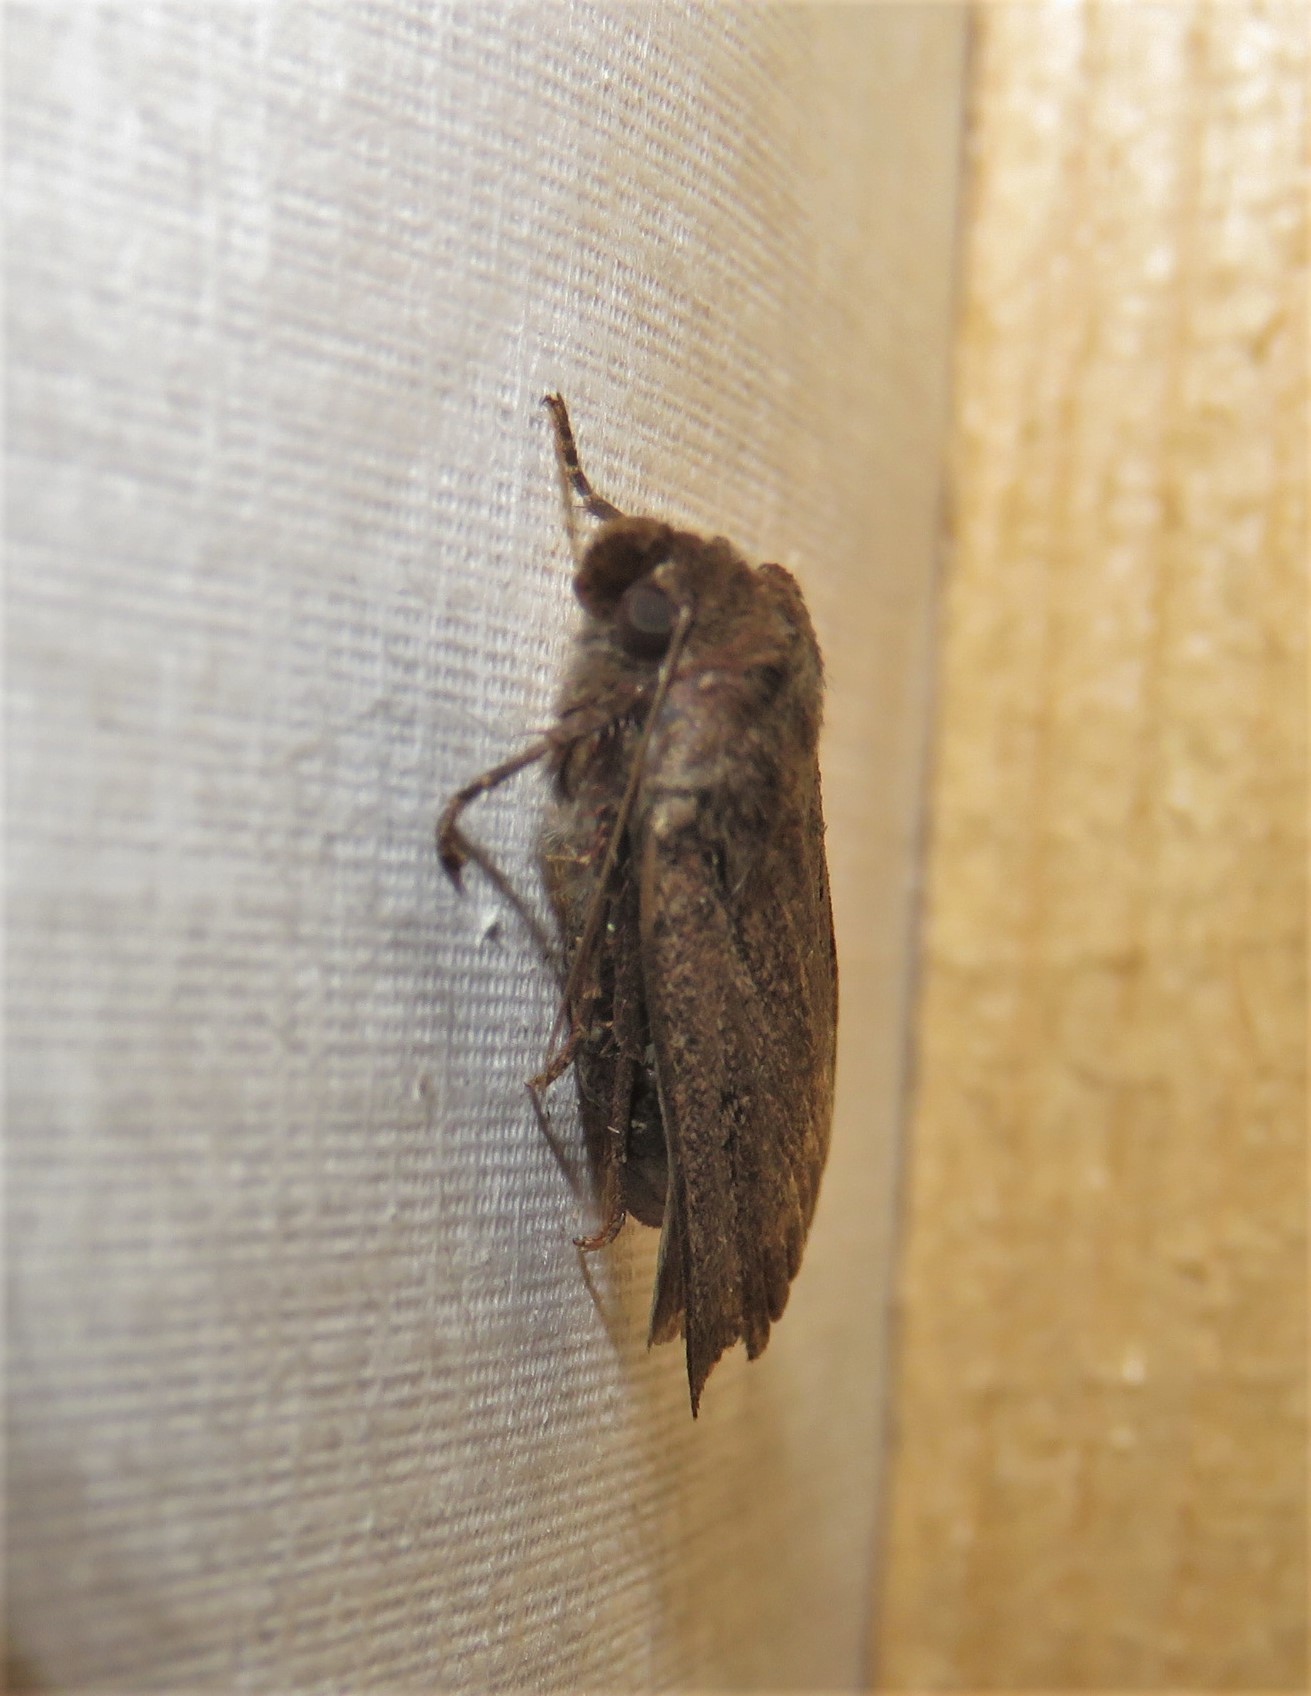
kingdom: Animalia
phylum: Arthropoda
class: Insecta
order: Lepidoptera
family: Noctuidae
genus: Spaelotis
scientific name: Spaelotis clandestina
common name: Clandestine dart
